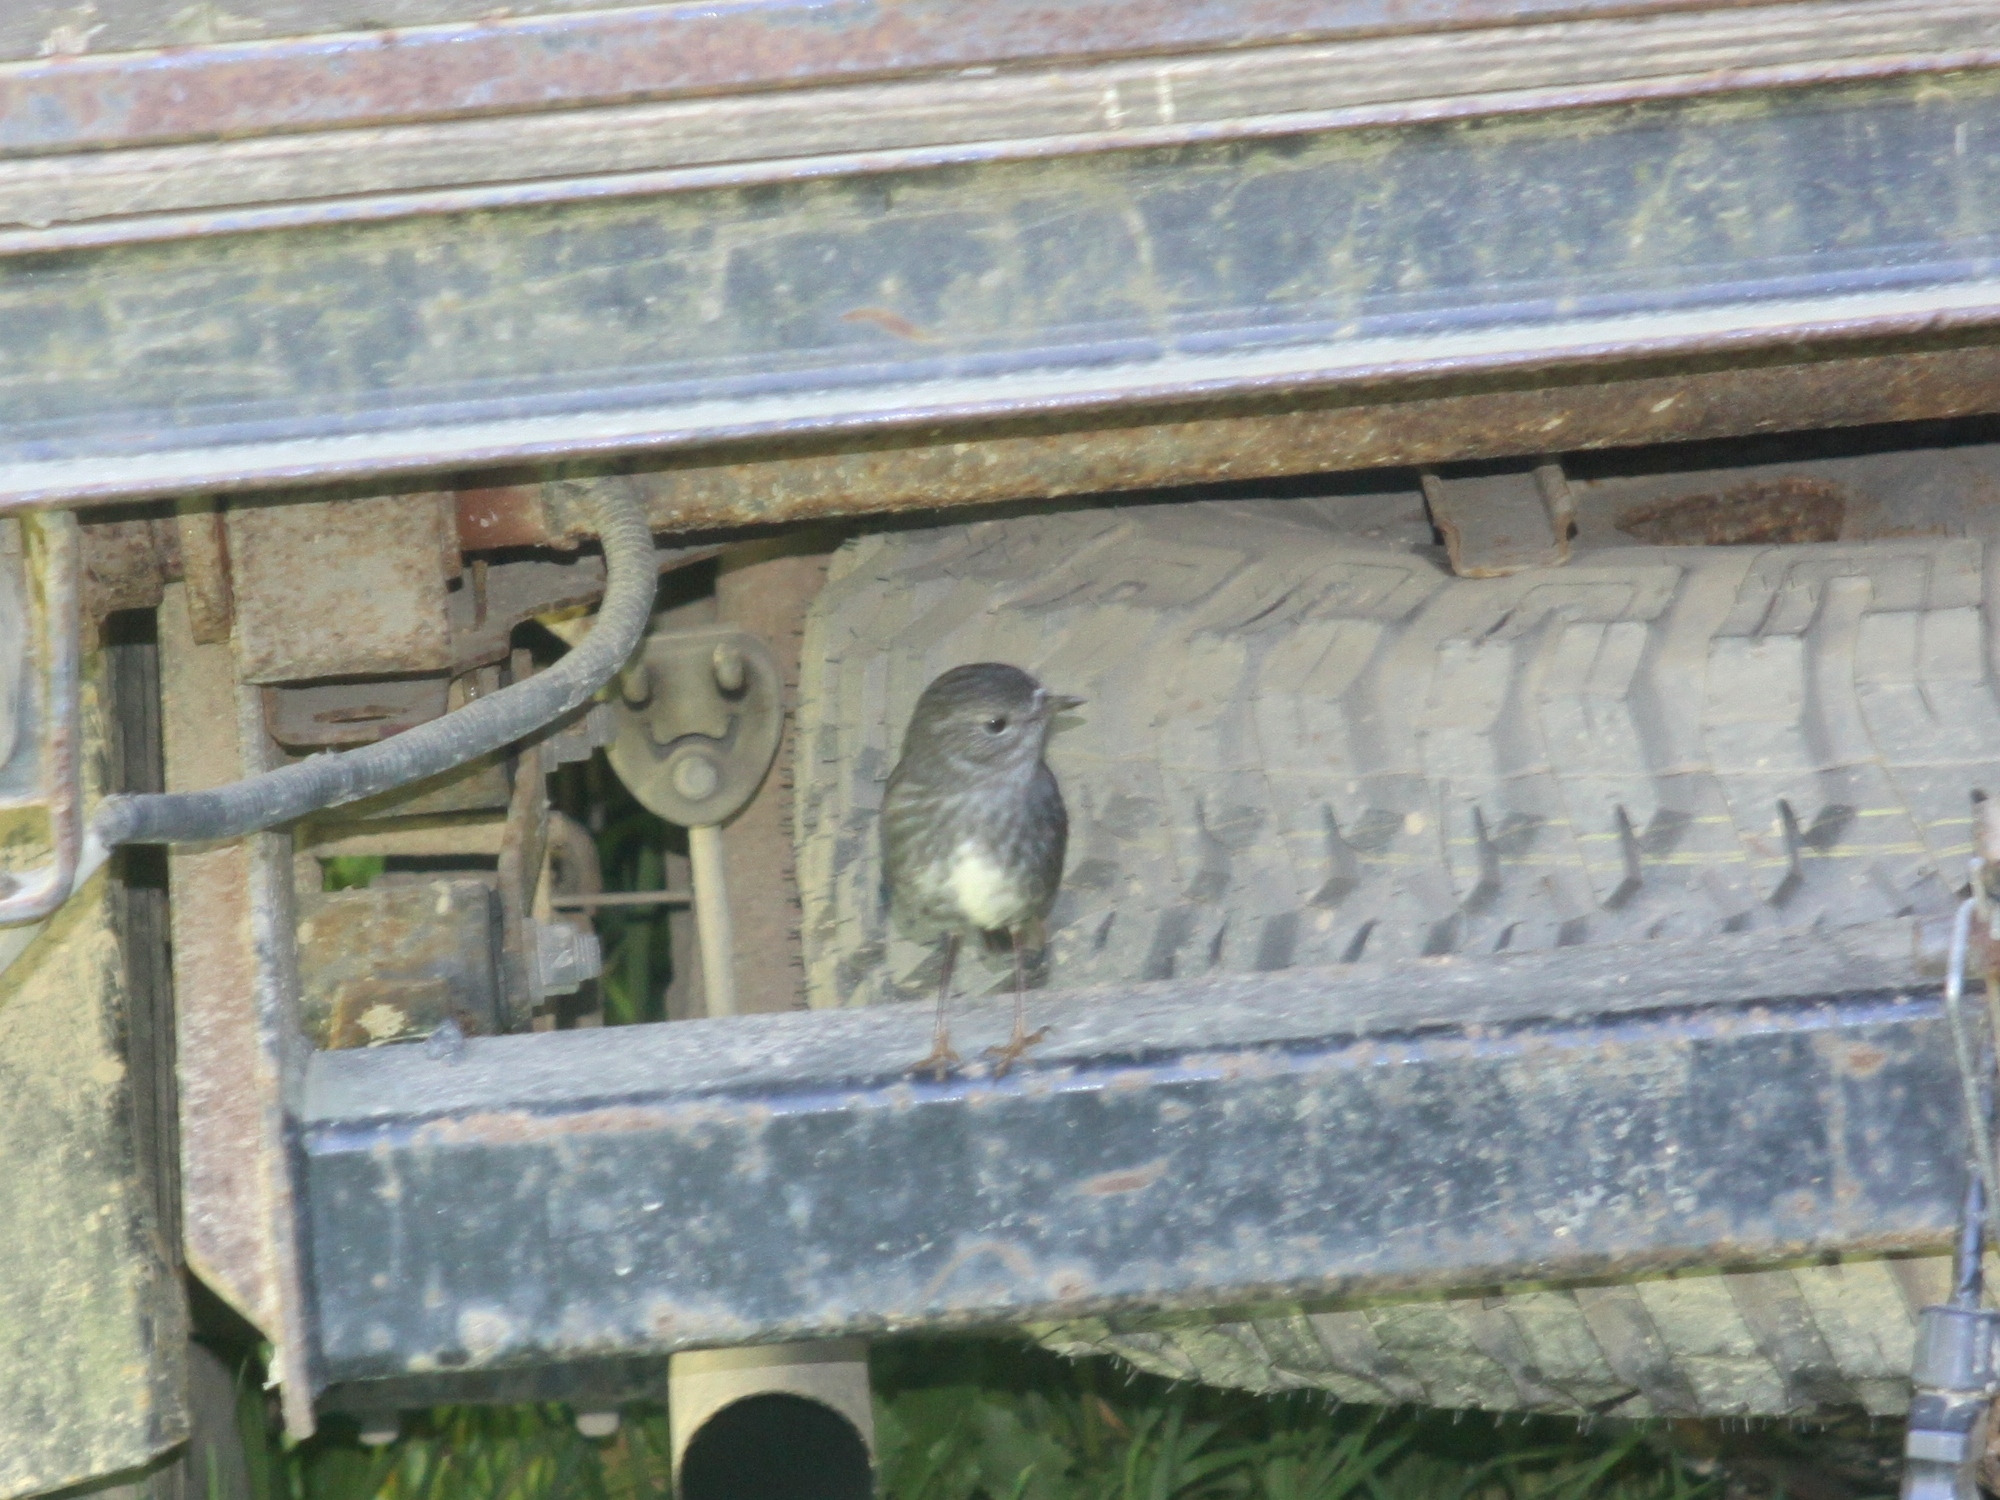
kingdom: Animalia
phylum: Chordata
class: Aves
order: Passeriformes
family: Petroicidae
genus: Petroica
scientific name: Petroica australis
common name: New zealand robin
